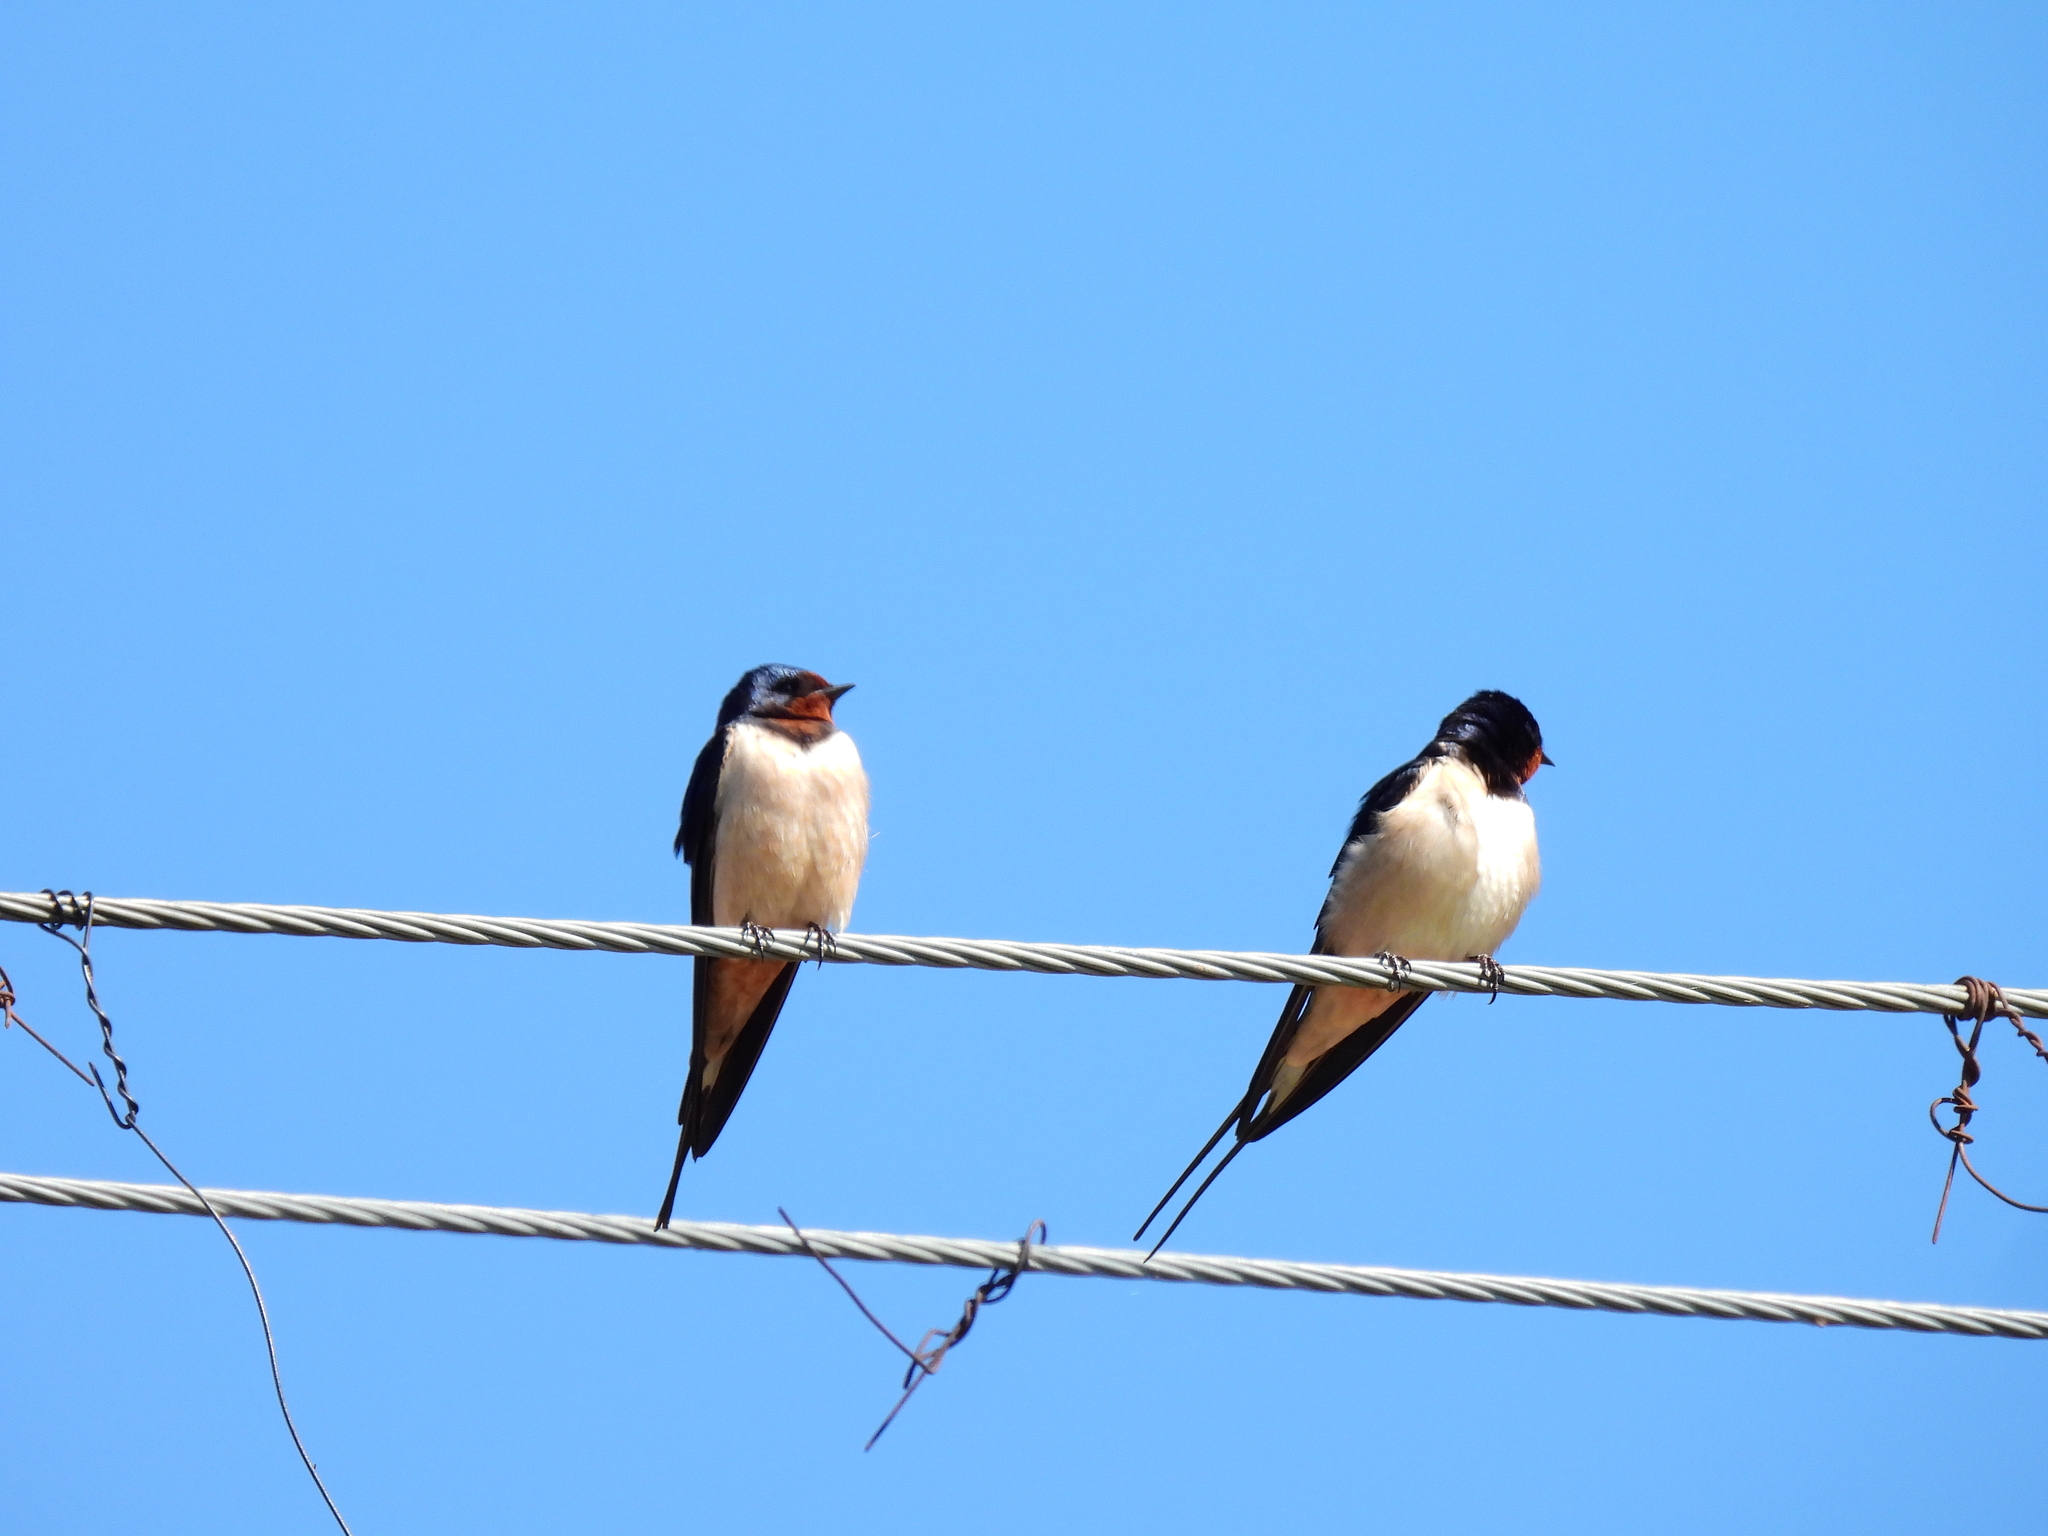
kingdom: Animalia
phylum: Chordata
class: Aves
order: Passeriformes
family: Hirundinidae
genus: Hirundo
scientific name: Hirundo rustica
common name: Barn swallow
